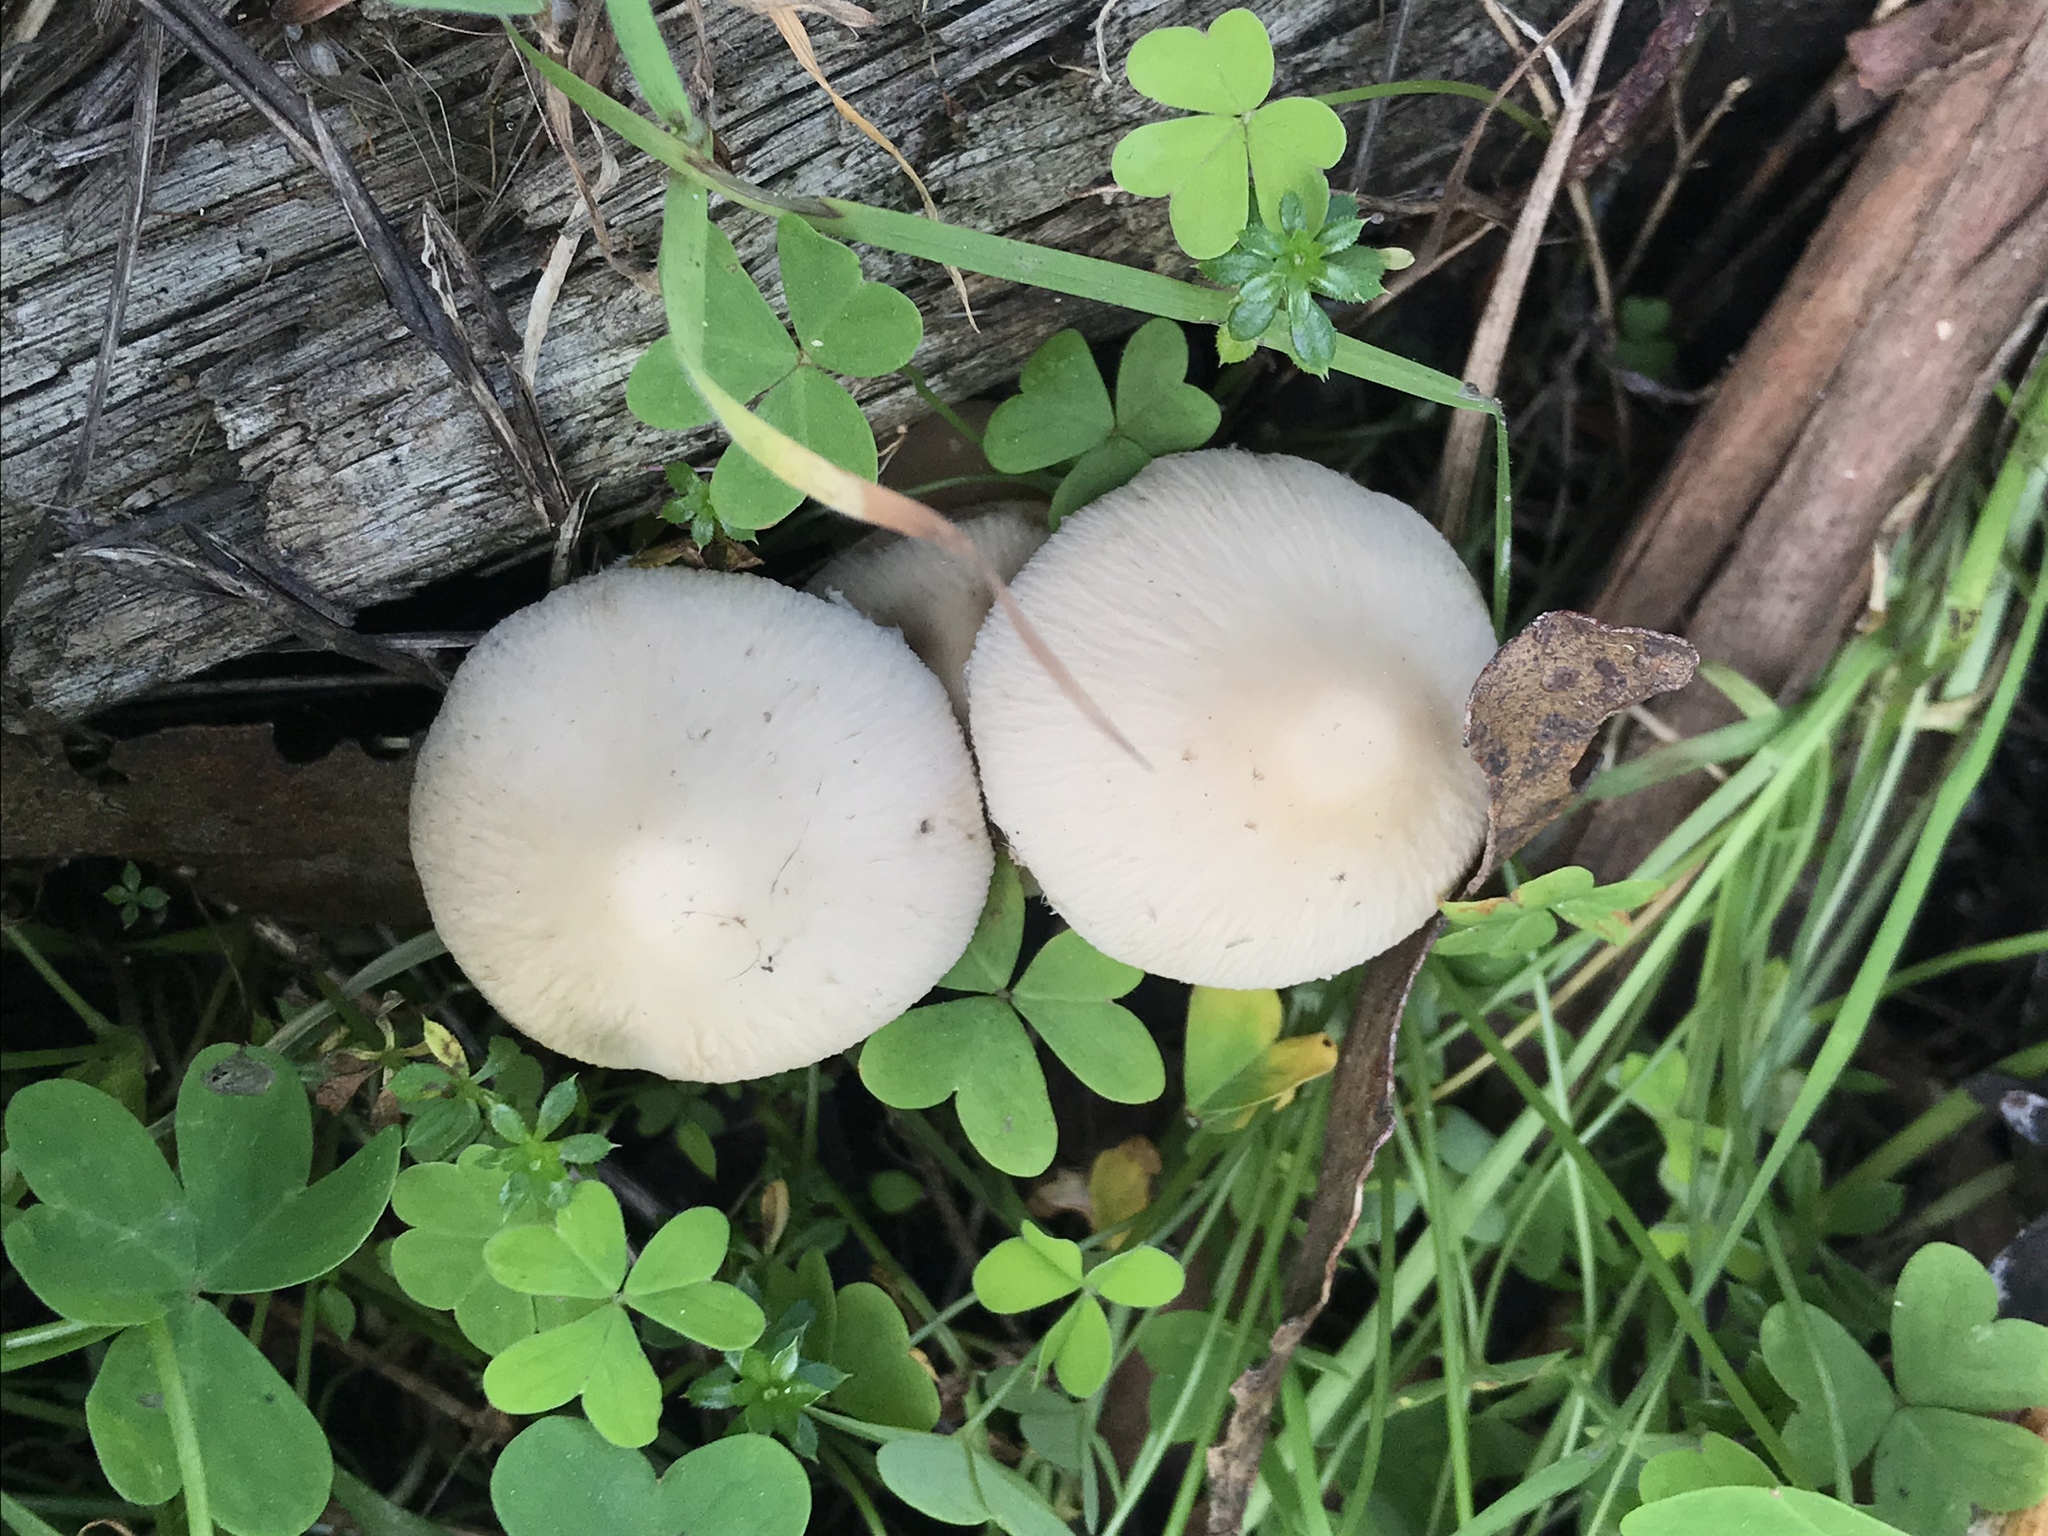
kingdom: Fungi
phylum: Basidiomycota
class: Agaricomycetes
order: Agaricales
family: Psathyrellaceae
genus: Candolleomyces
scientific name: Candolleomyces candolleanus
